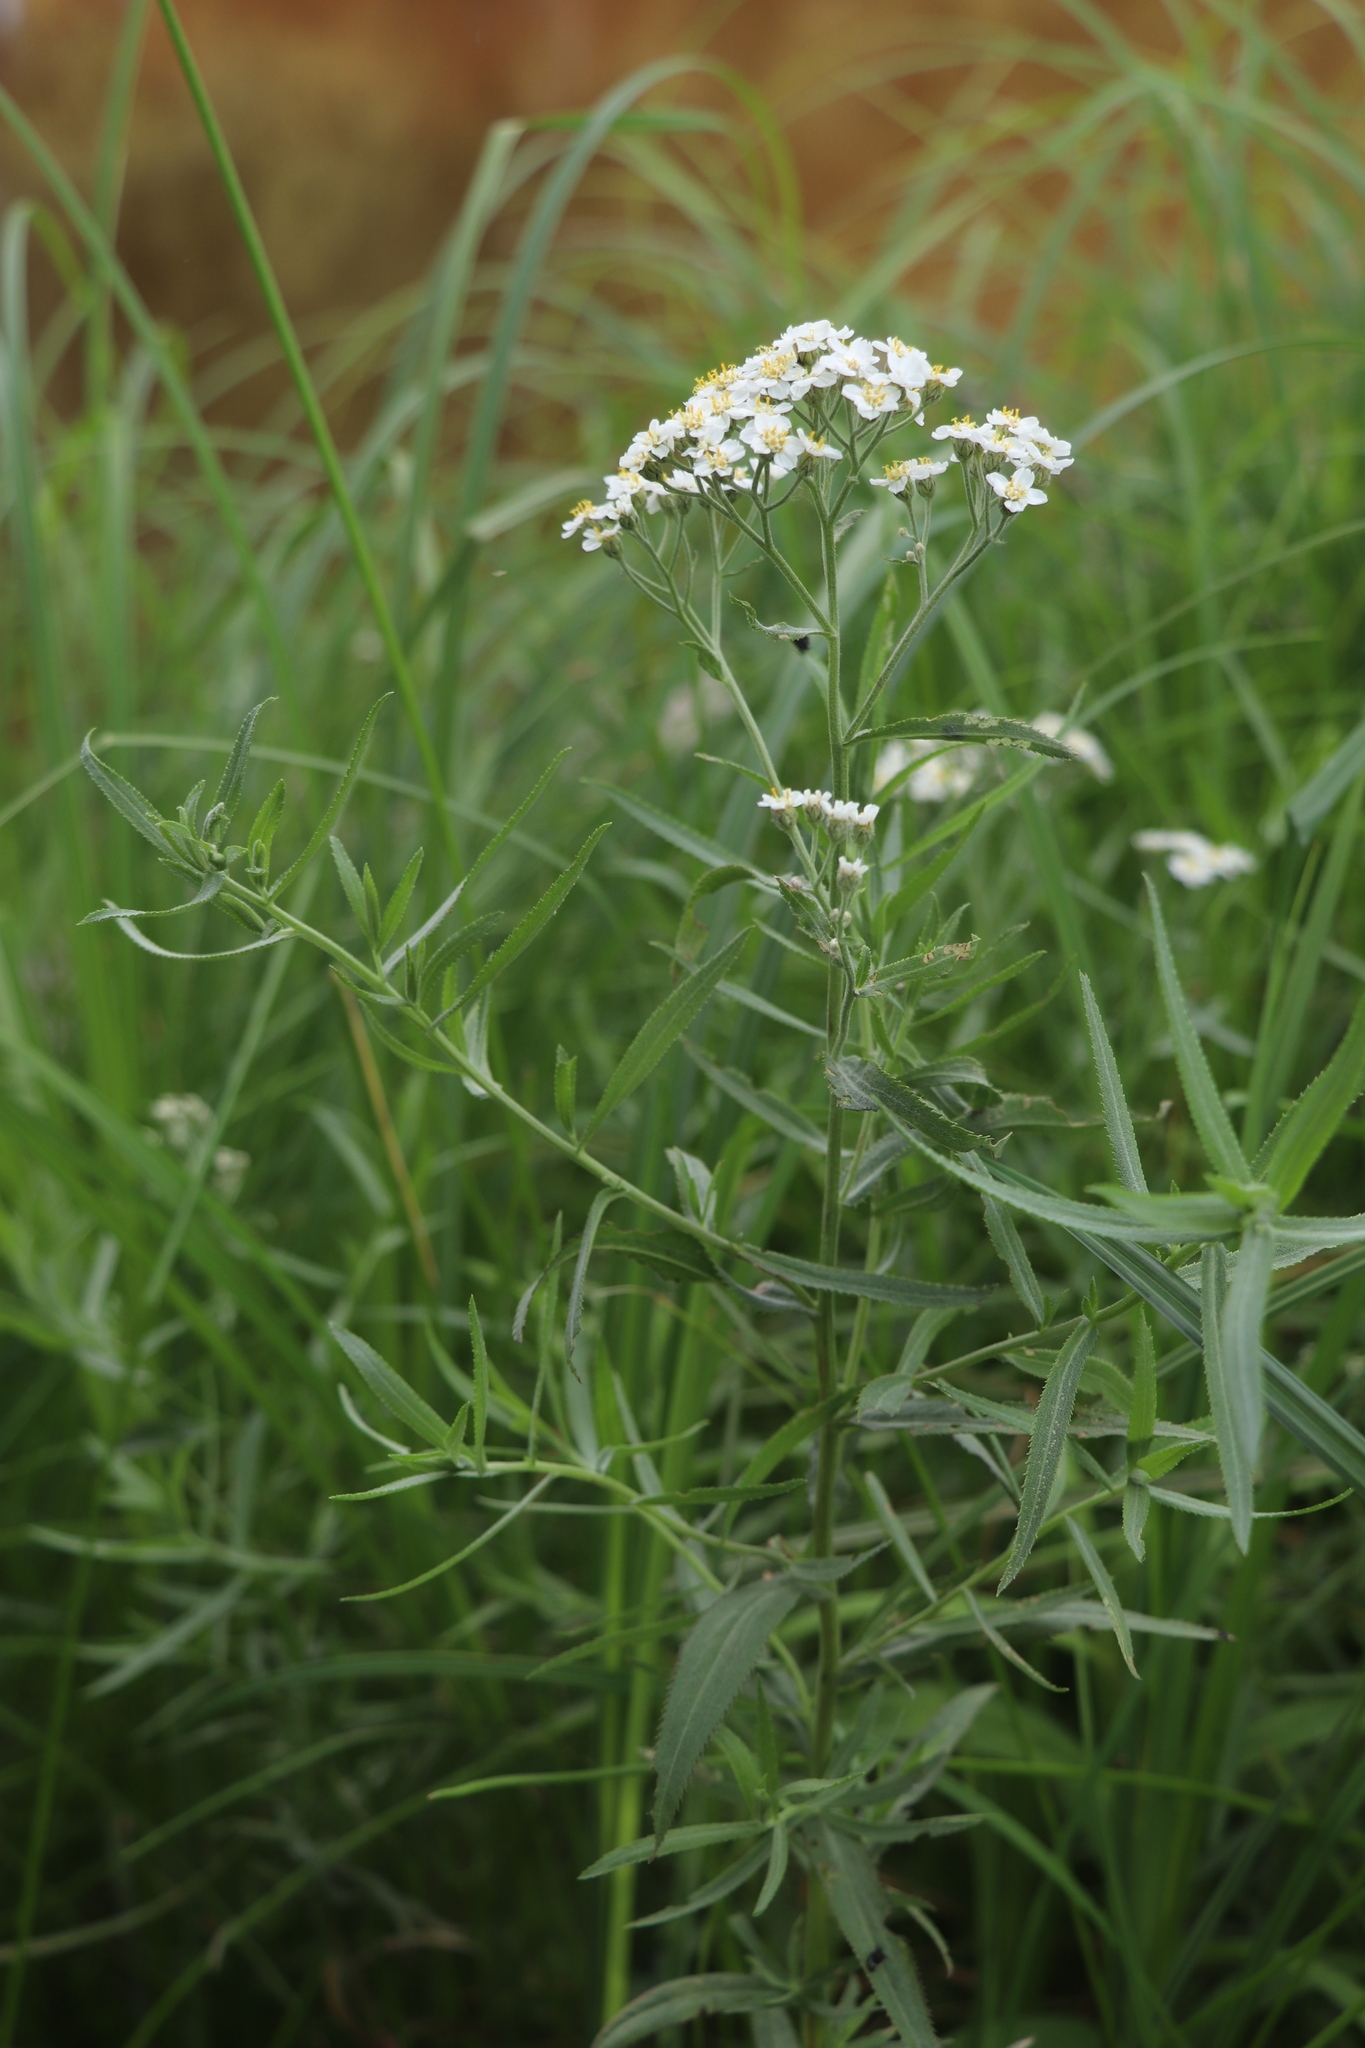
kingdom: Plantae
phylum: Tracheophyta
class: Magnoliopsida
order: Asterales
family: Asteraceae
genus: Achillea
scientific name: Achillea salicifolia
